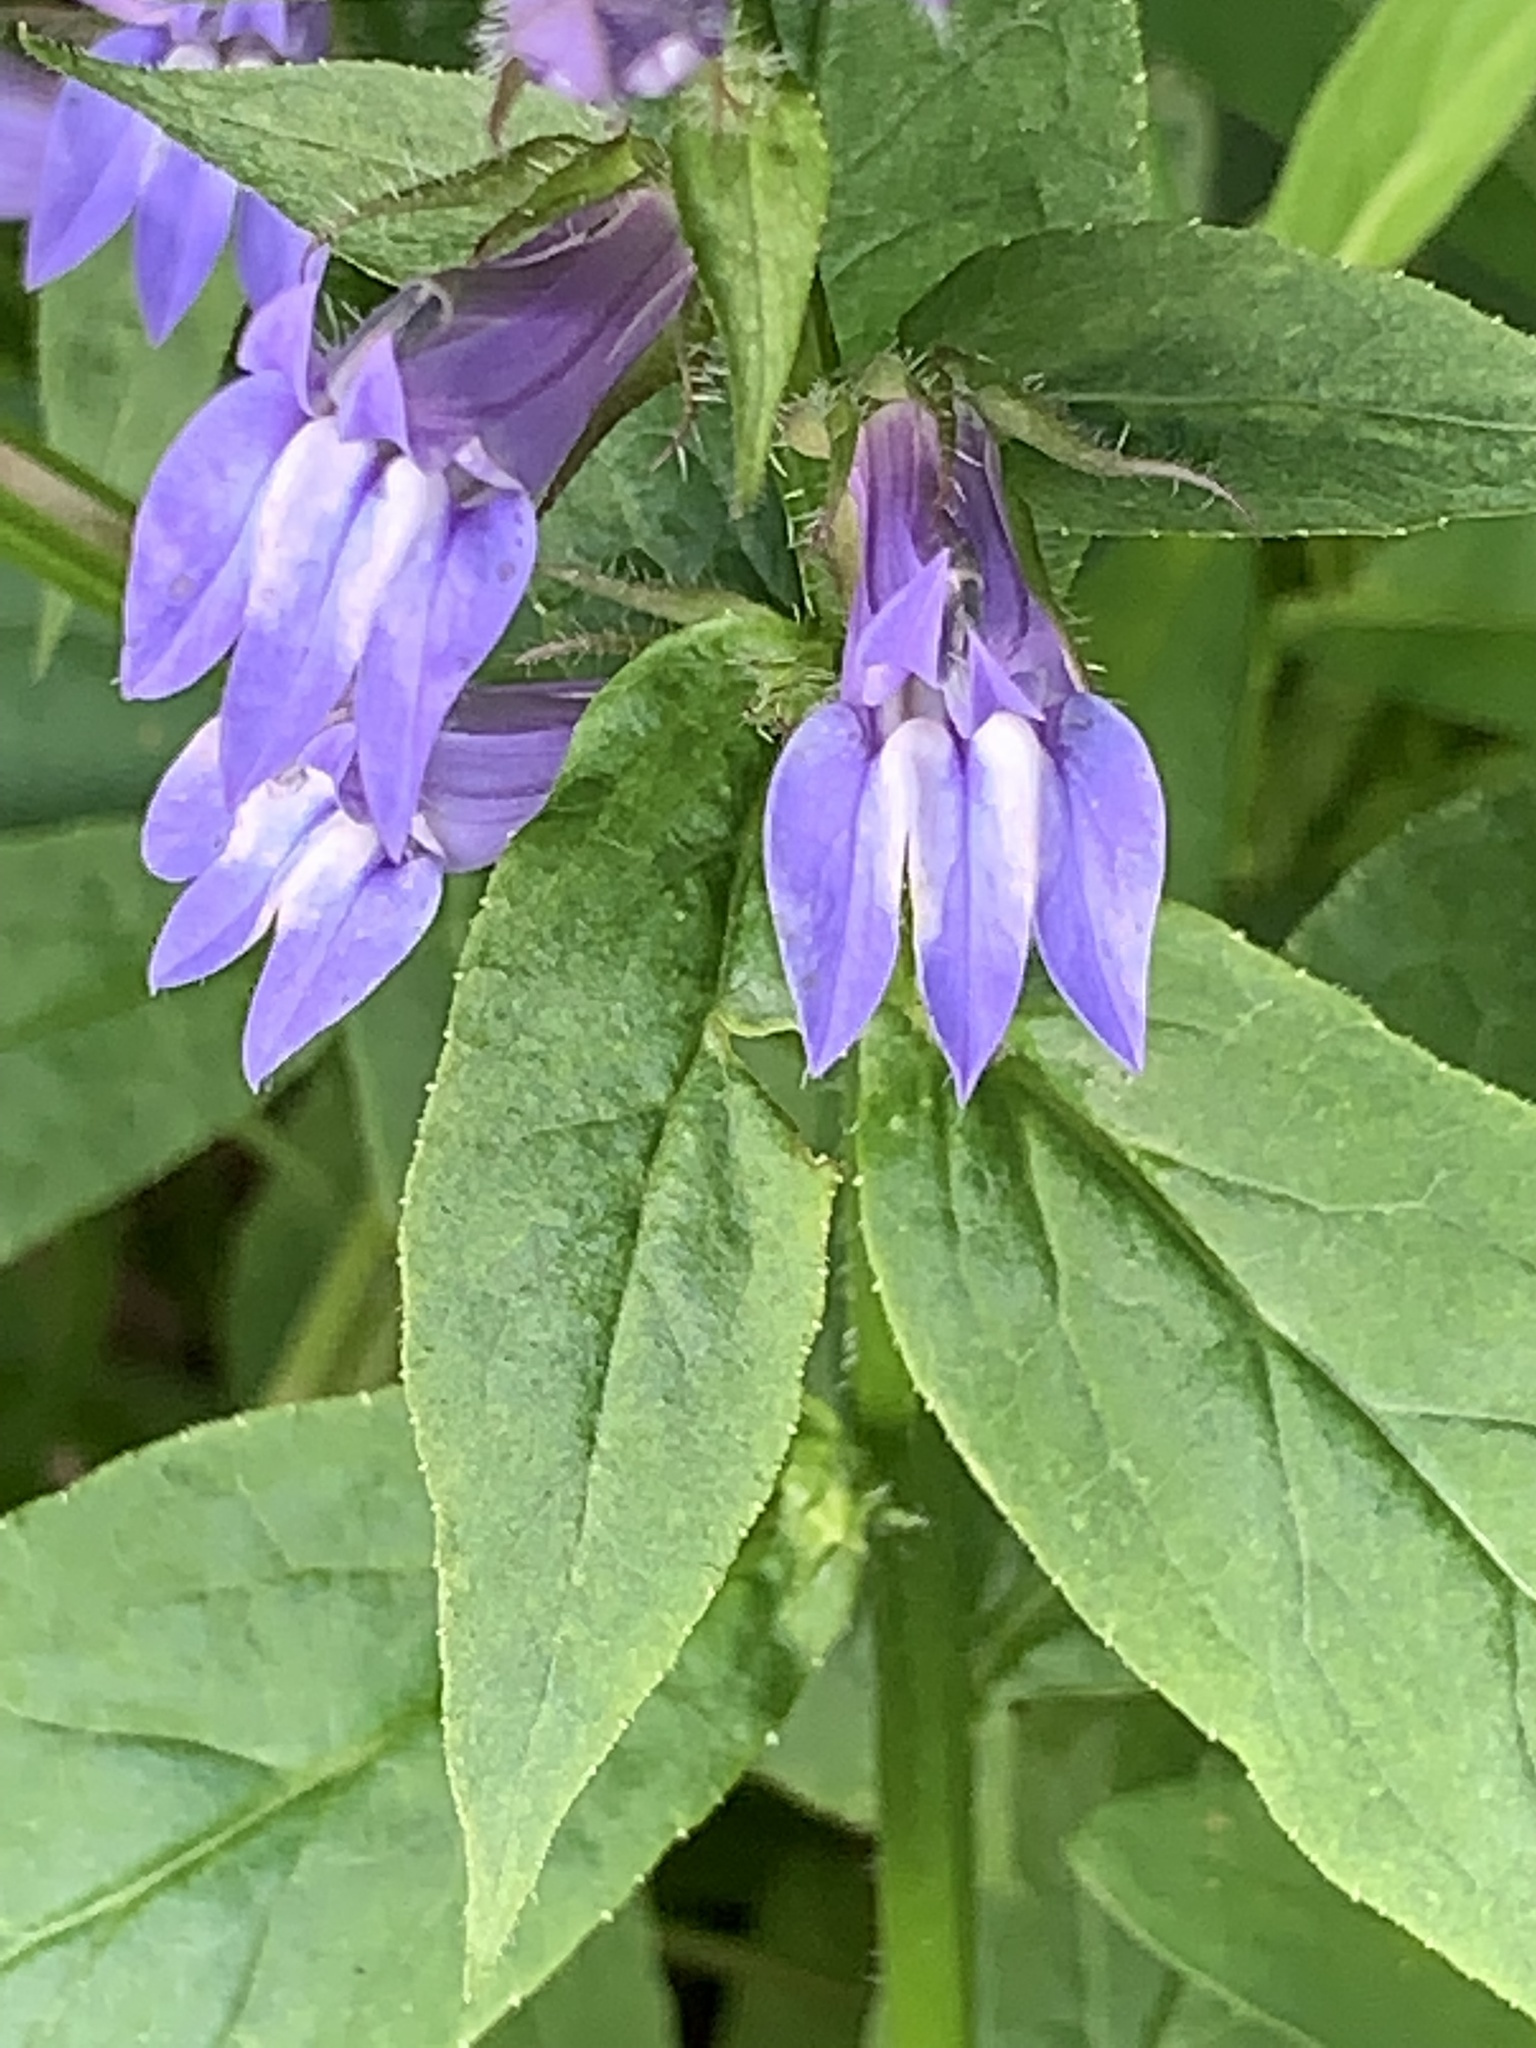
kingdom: Plantae
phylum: Tracheophyta
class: Magnoliopsida
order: Asterales
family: Campanulaceae
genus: Lobelia
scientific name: Lobelia siphilitica
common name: Great lobelia
